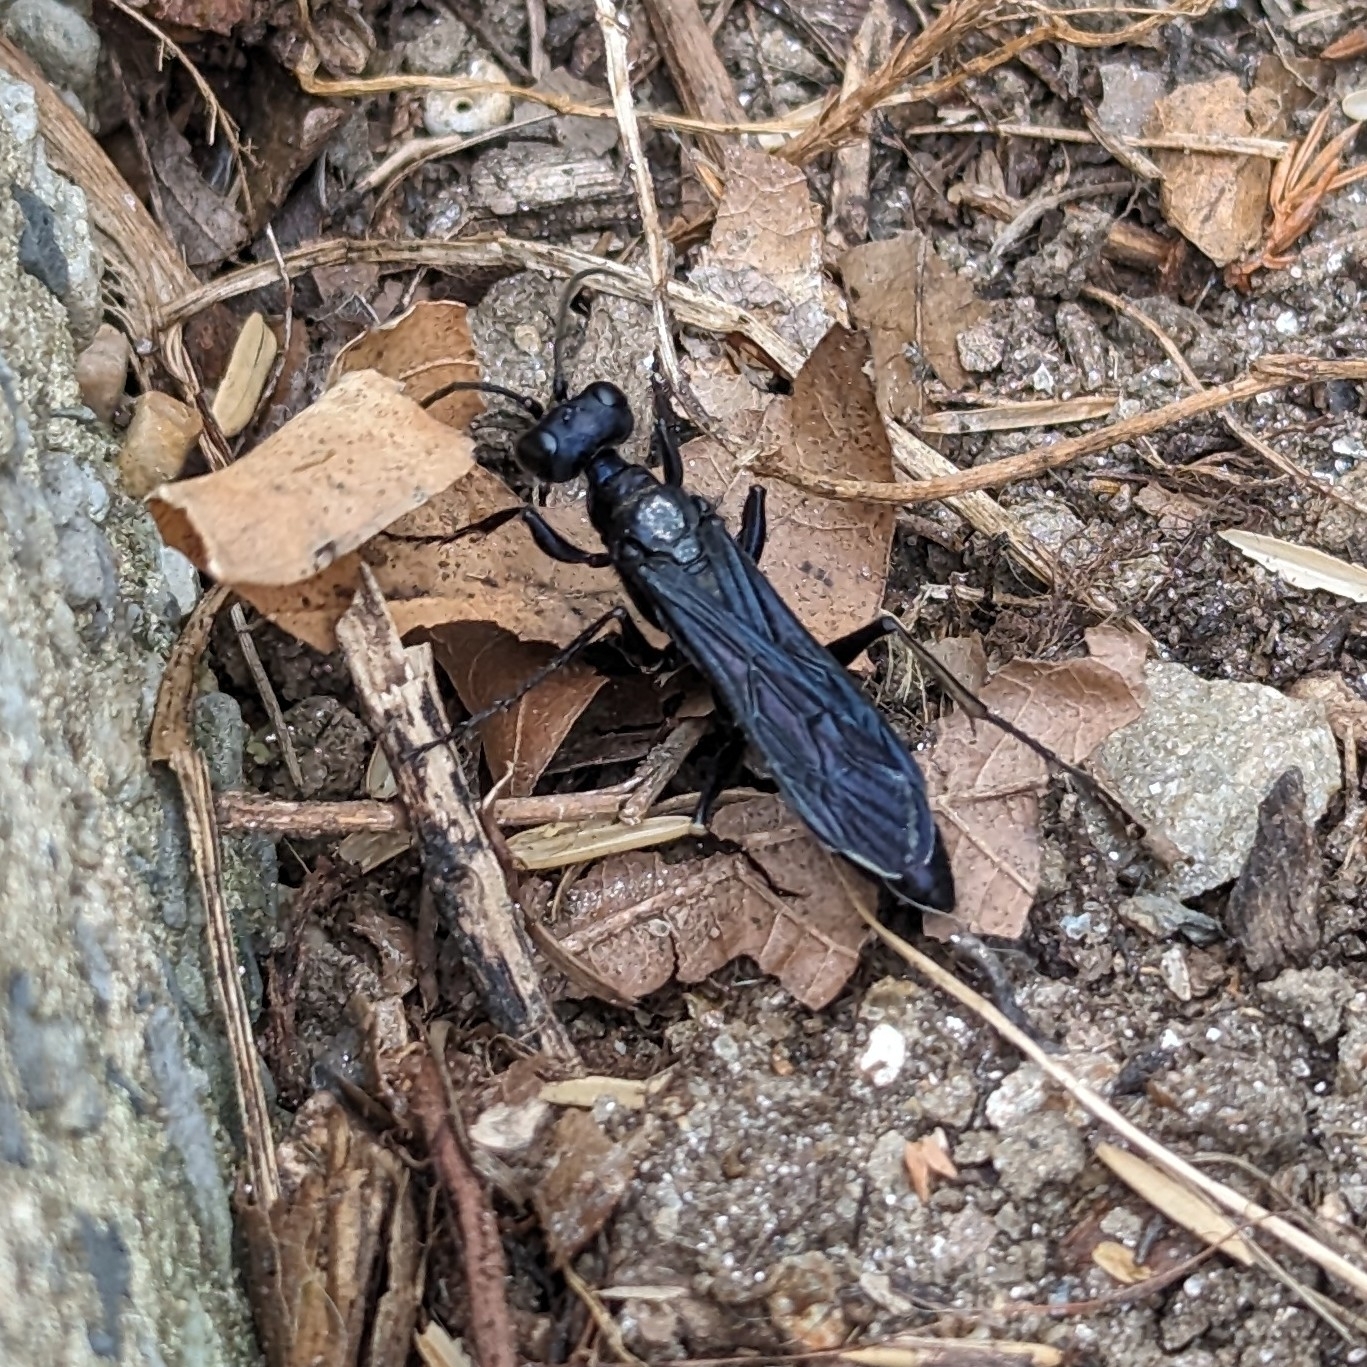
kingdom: Animalia
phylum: Arthropoda
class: Insecta
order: Hymenoptera
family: Sphecidae
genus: Chlorion
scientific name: Chlorion aerarium
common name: Steel-blue cricket hunter
